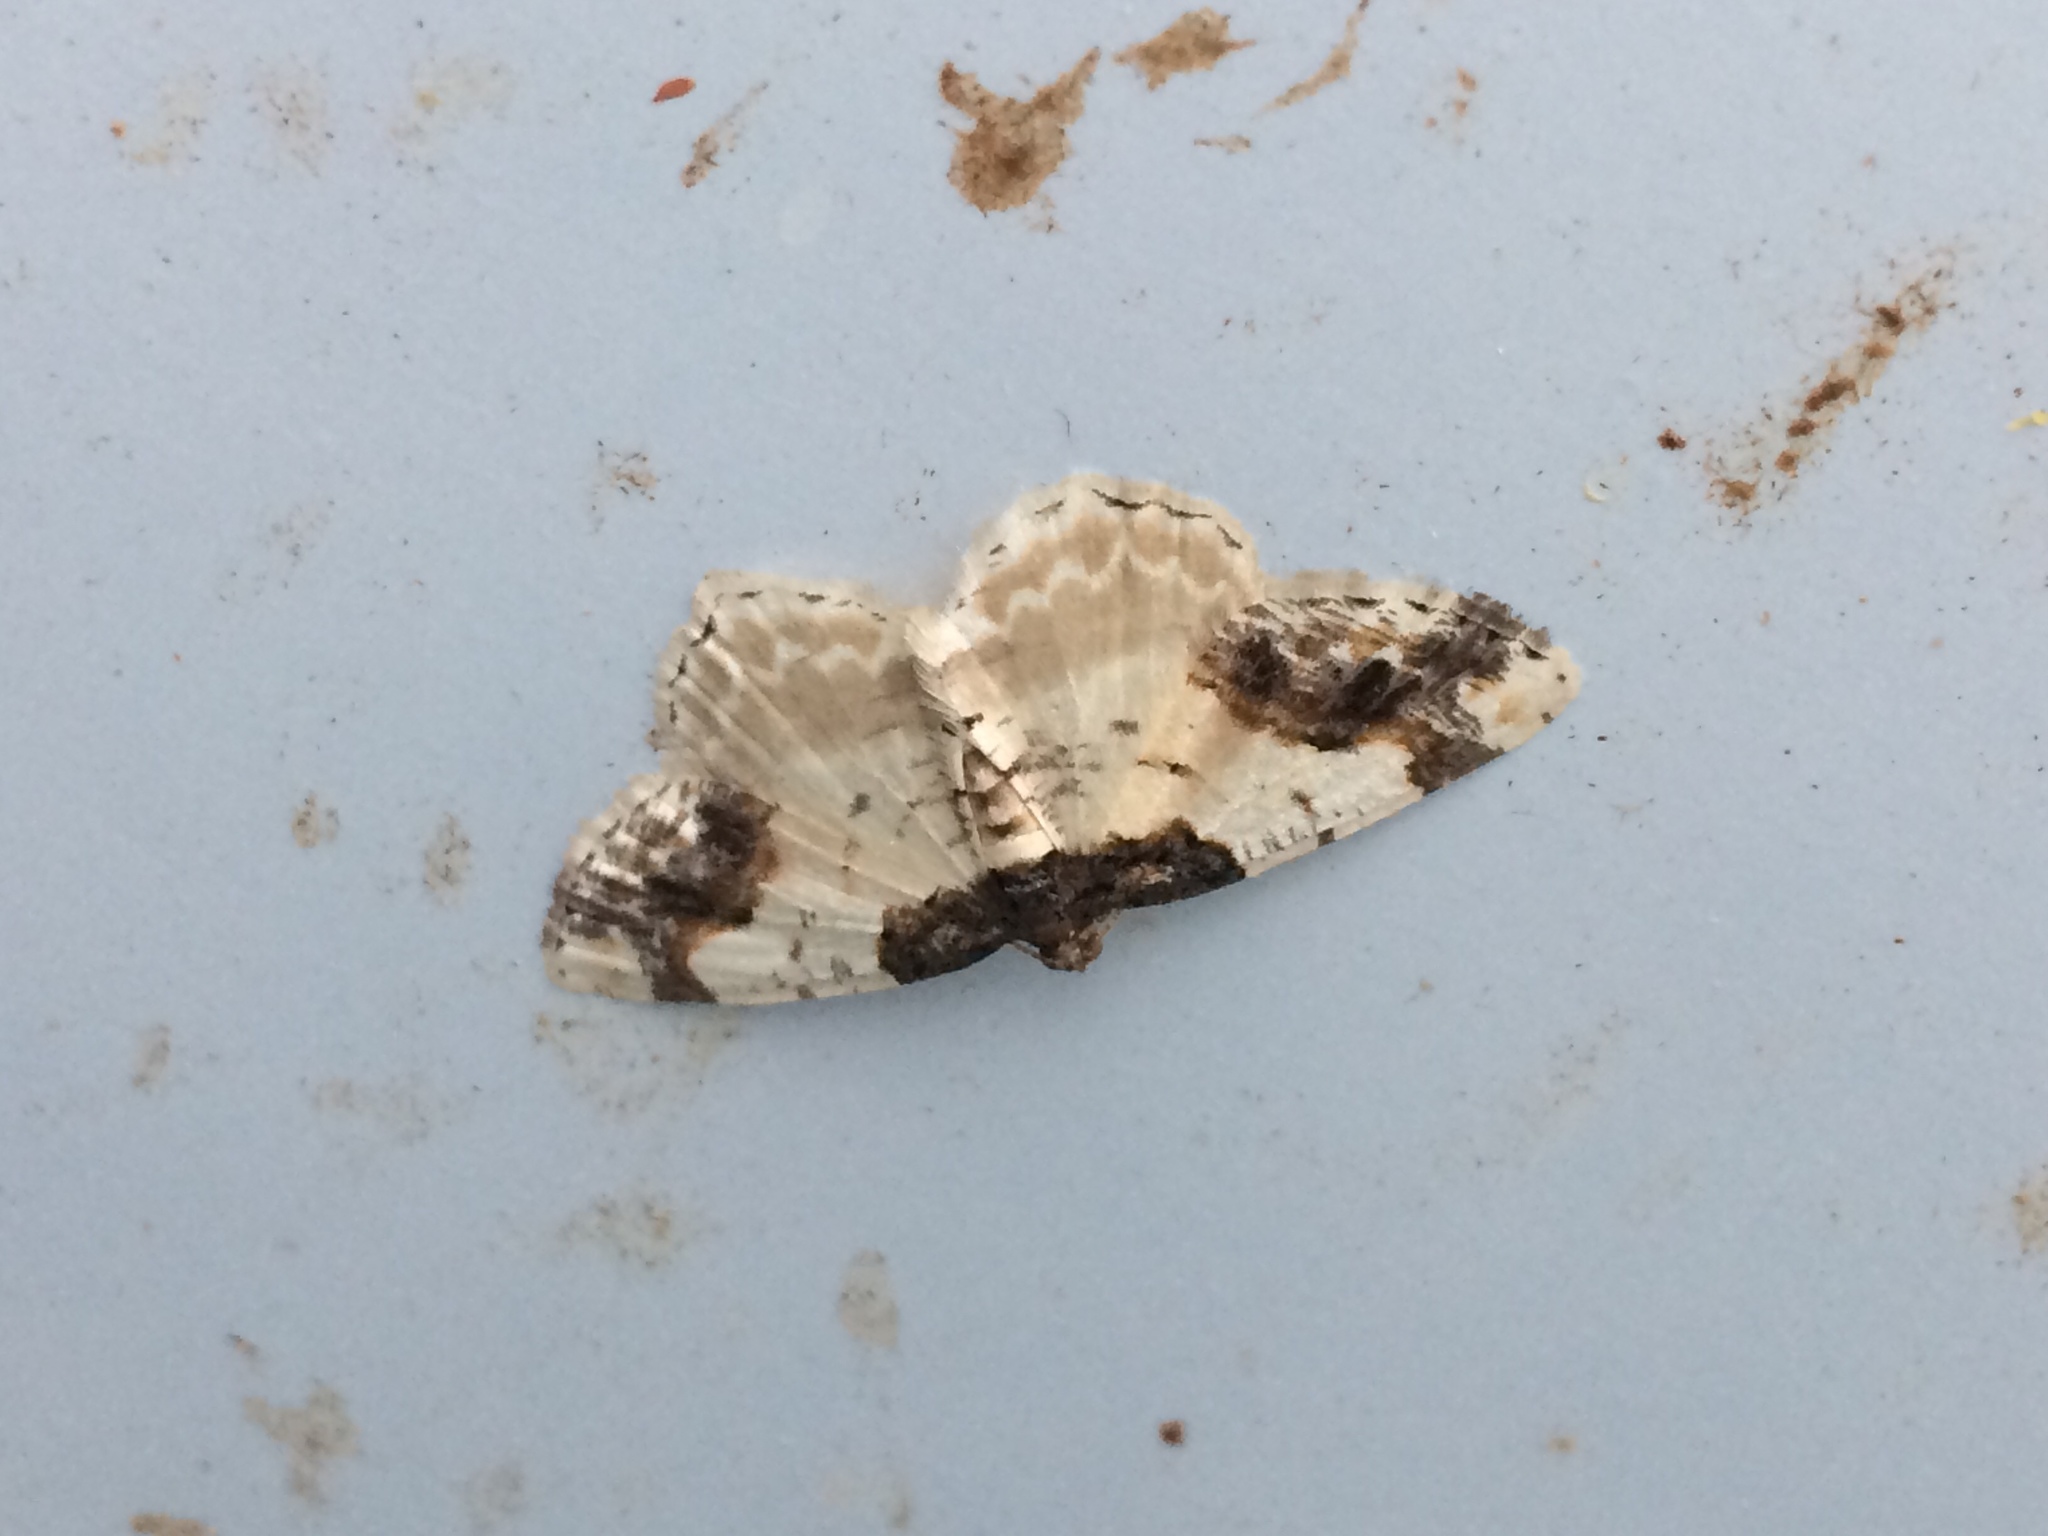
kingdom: Animalia
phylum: Arthropoda
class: Insecta
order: Lepidoptera
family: Geometridae
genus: Ligdia
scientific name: Ligdia adustata
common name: Scorched carpet
